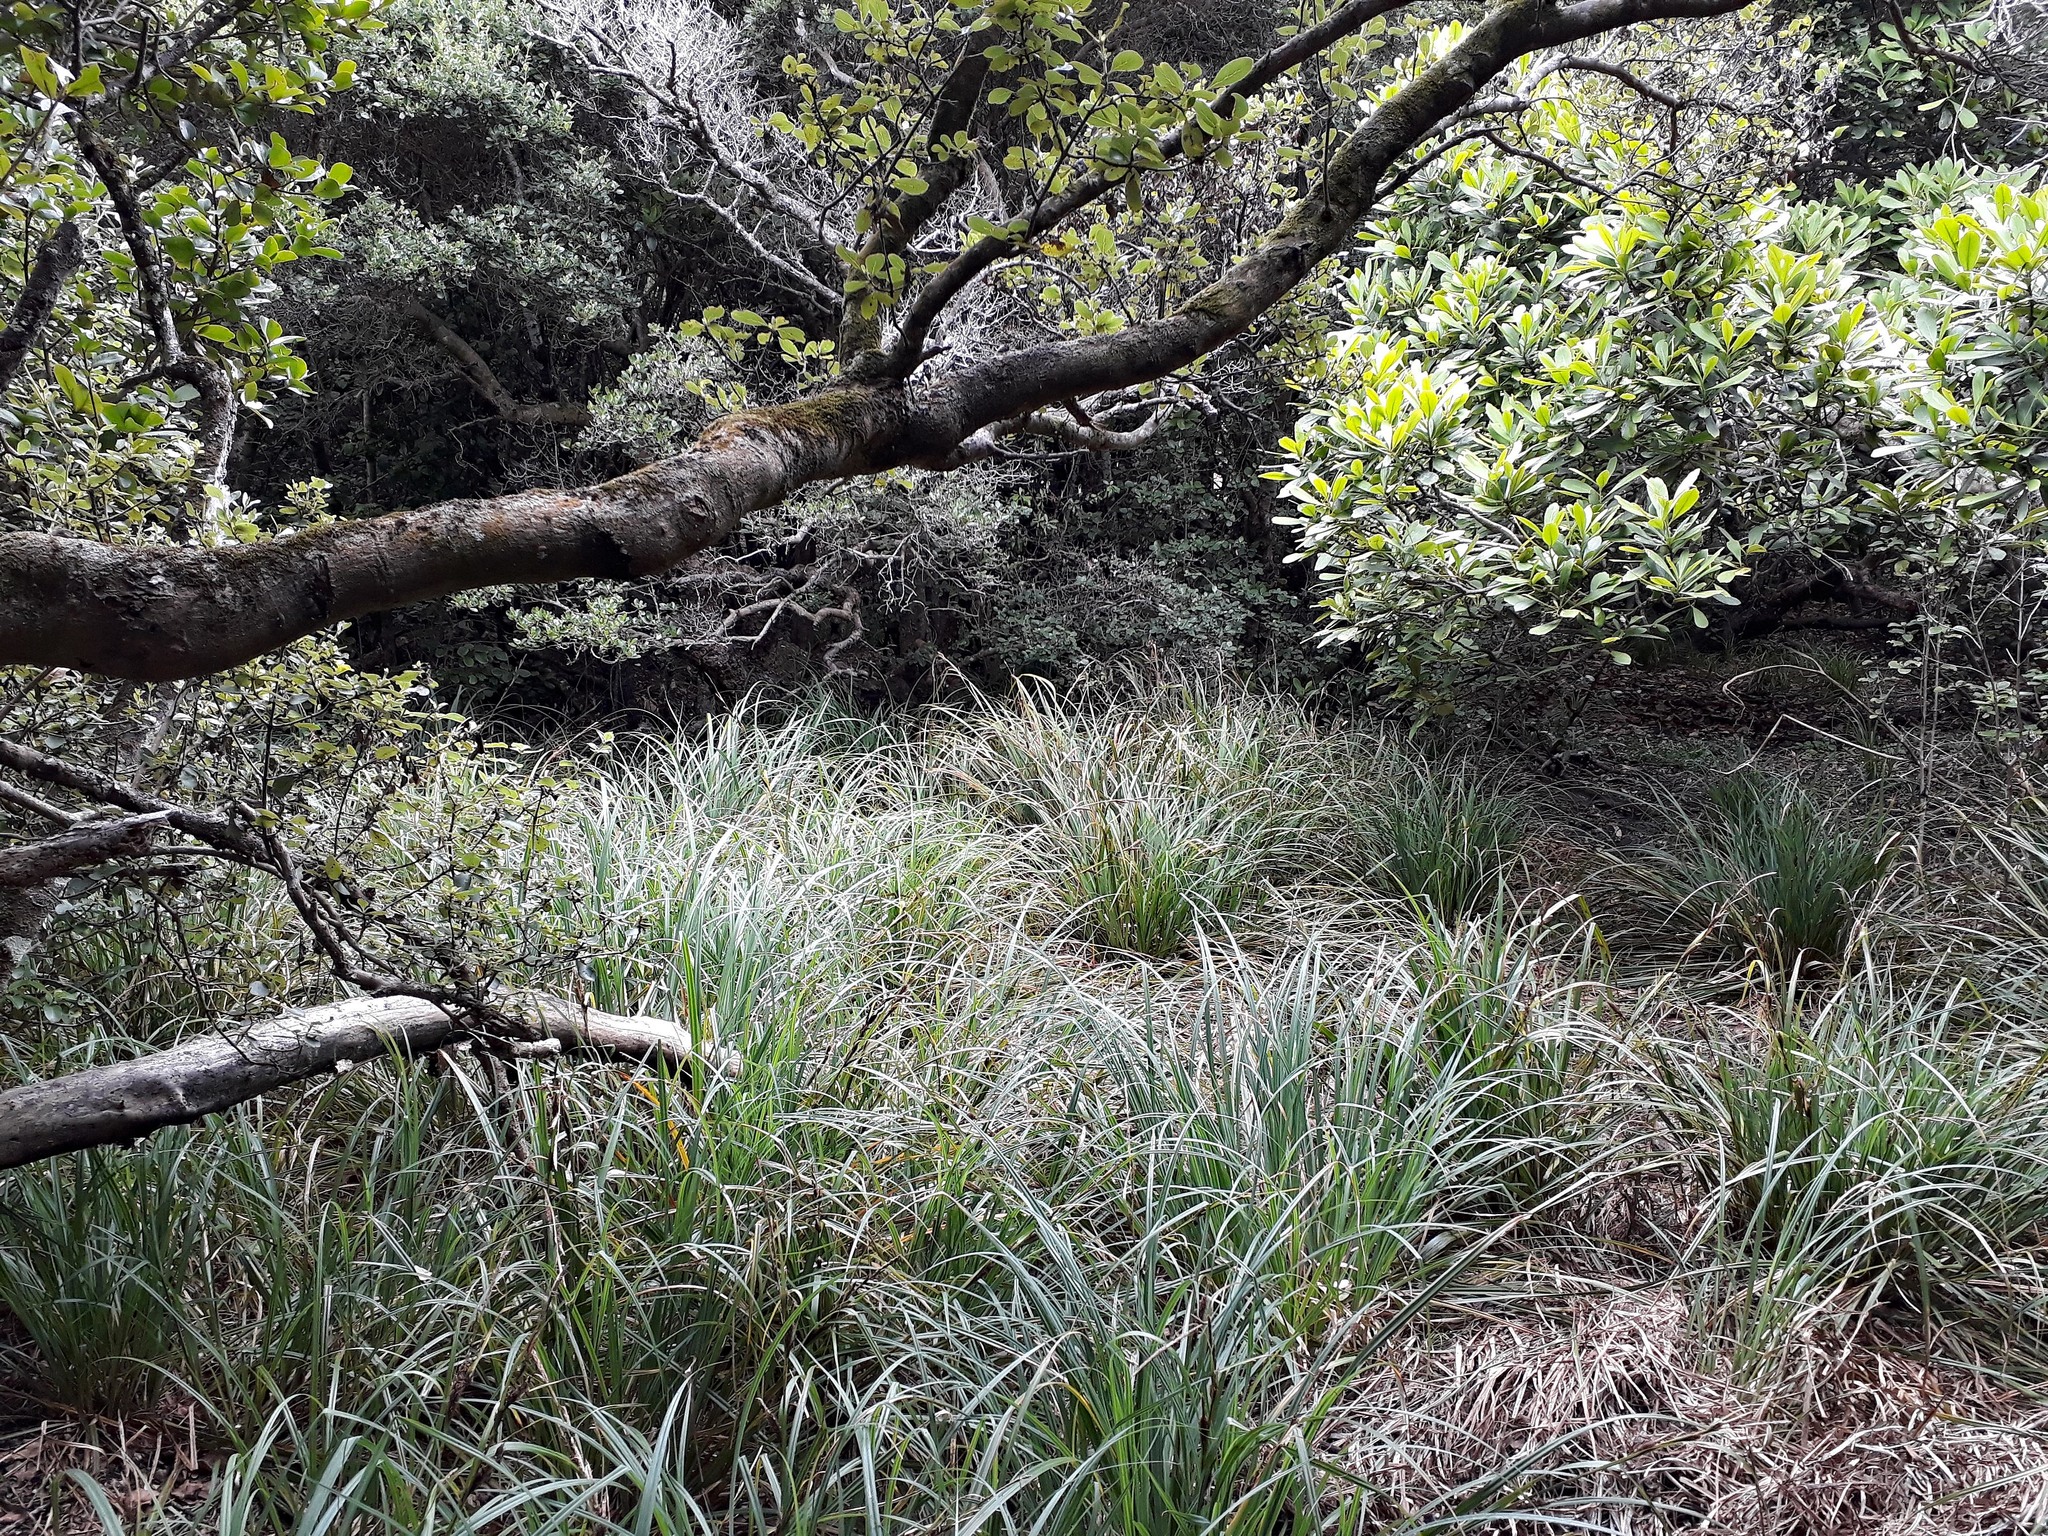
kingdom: Plantae
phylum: Tracheophyta
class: Liliopsida
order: Poales
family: Cyperaceae
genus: Carex
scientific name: Carex ventosa
